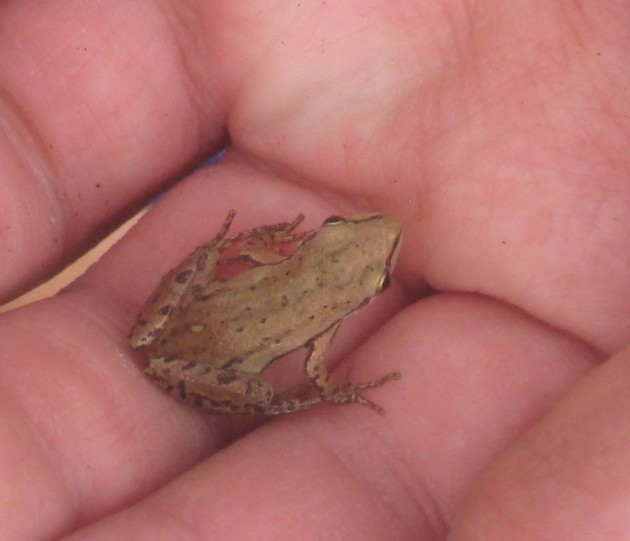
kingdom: Animalia
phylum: Chordata
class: Amphibia
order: Anura
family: Hylidae
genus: Pseudacris
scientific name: Pseudacris maculata
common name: Boreal chorus frog
